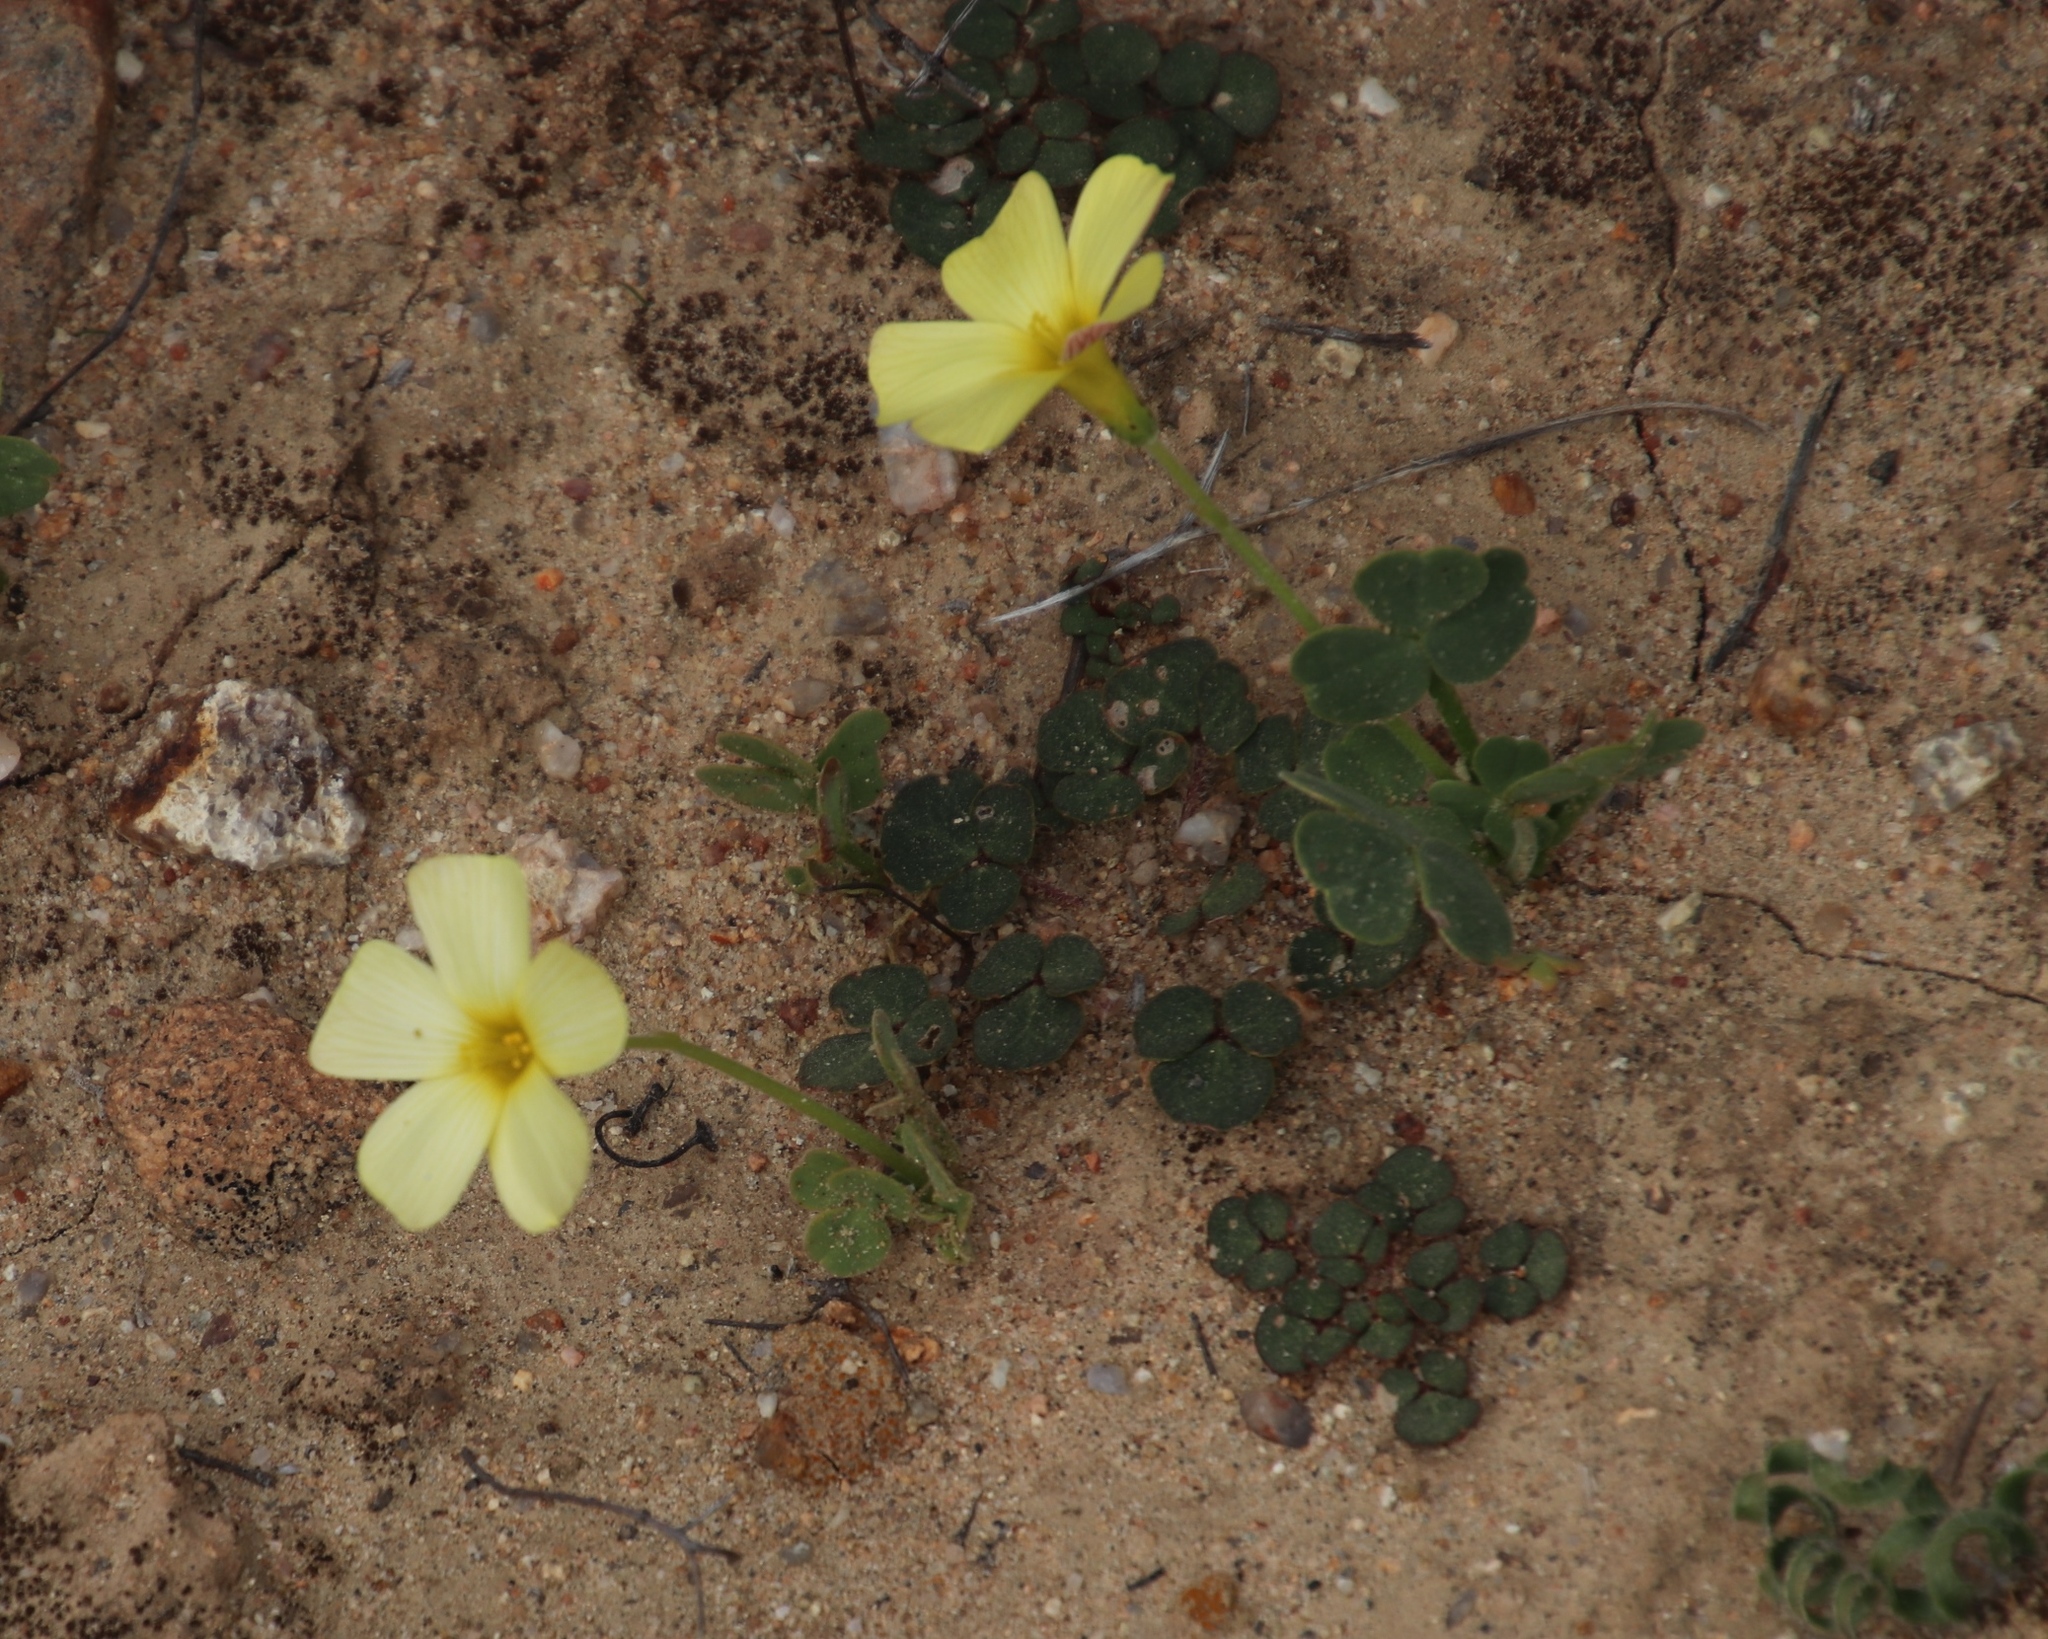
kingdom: Plantae
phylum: Tracheophyta
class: Magnoliopsida
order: Oxalidales
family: Oxalidaceae
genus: Oxalis
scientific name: Oxalis obtusa
